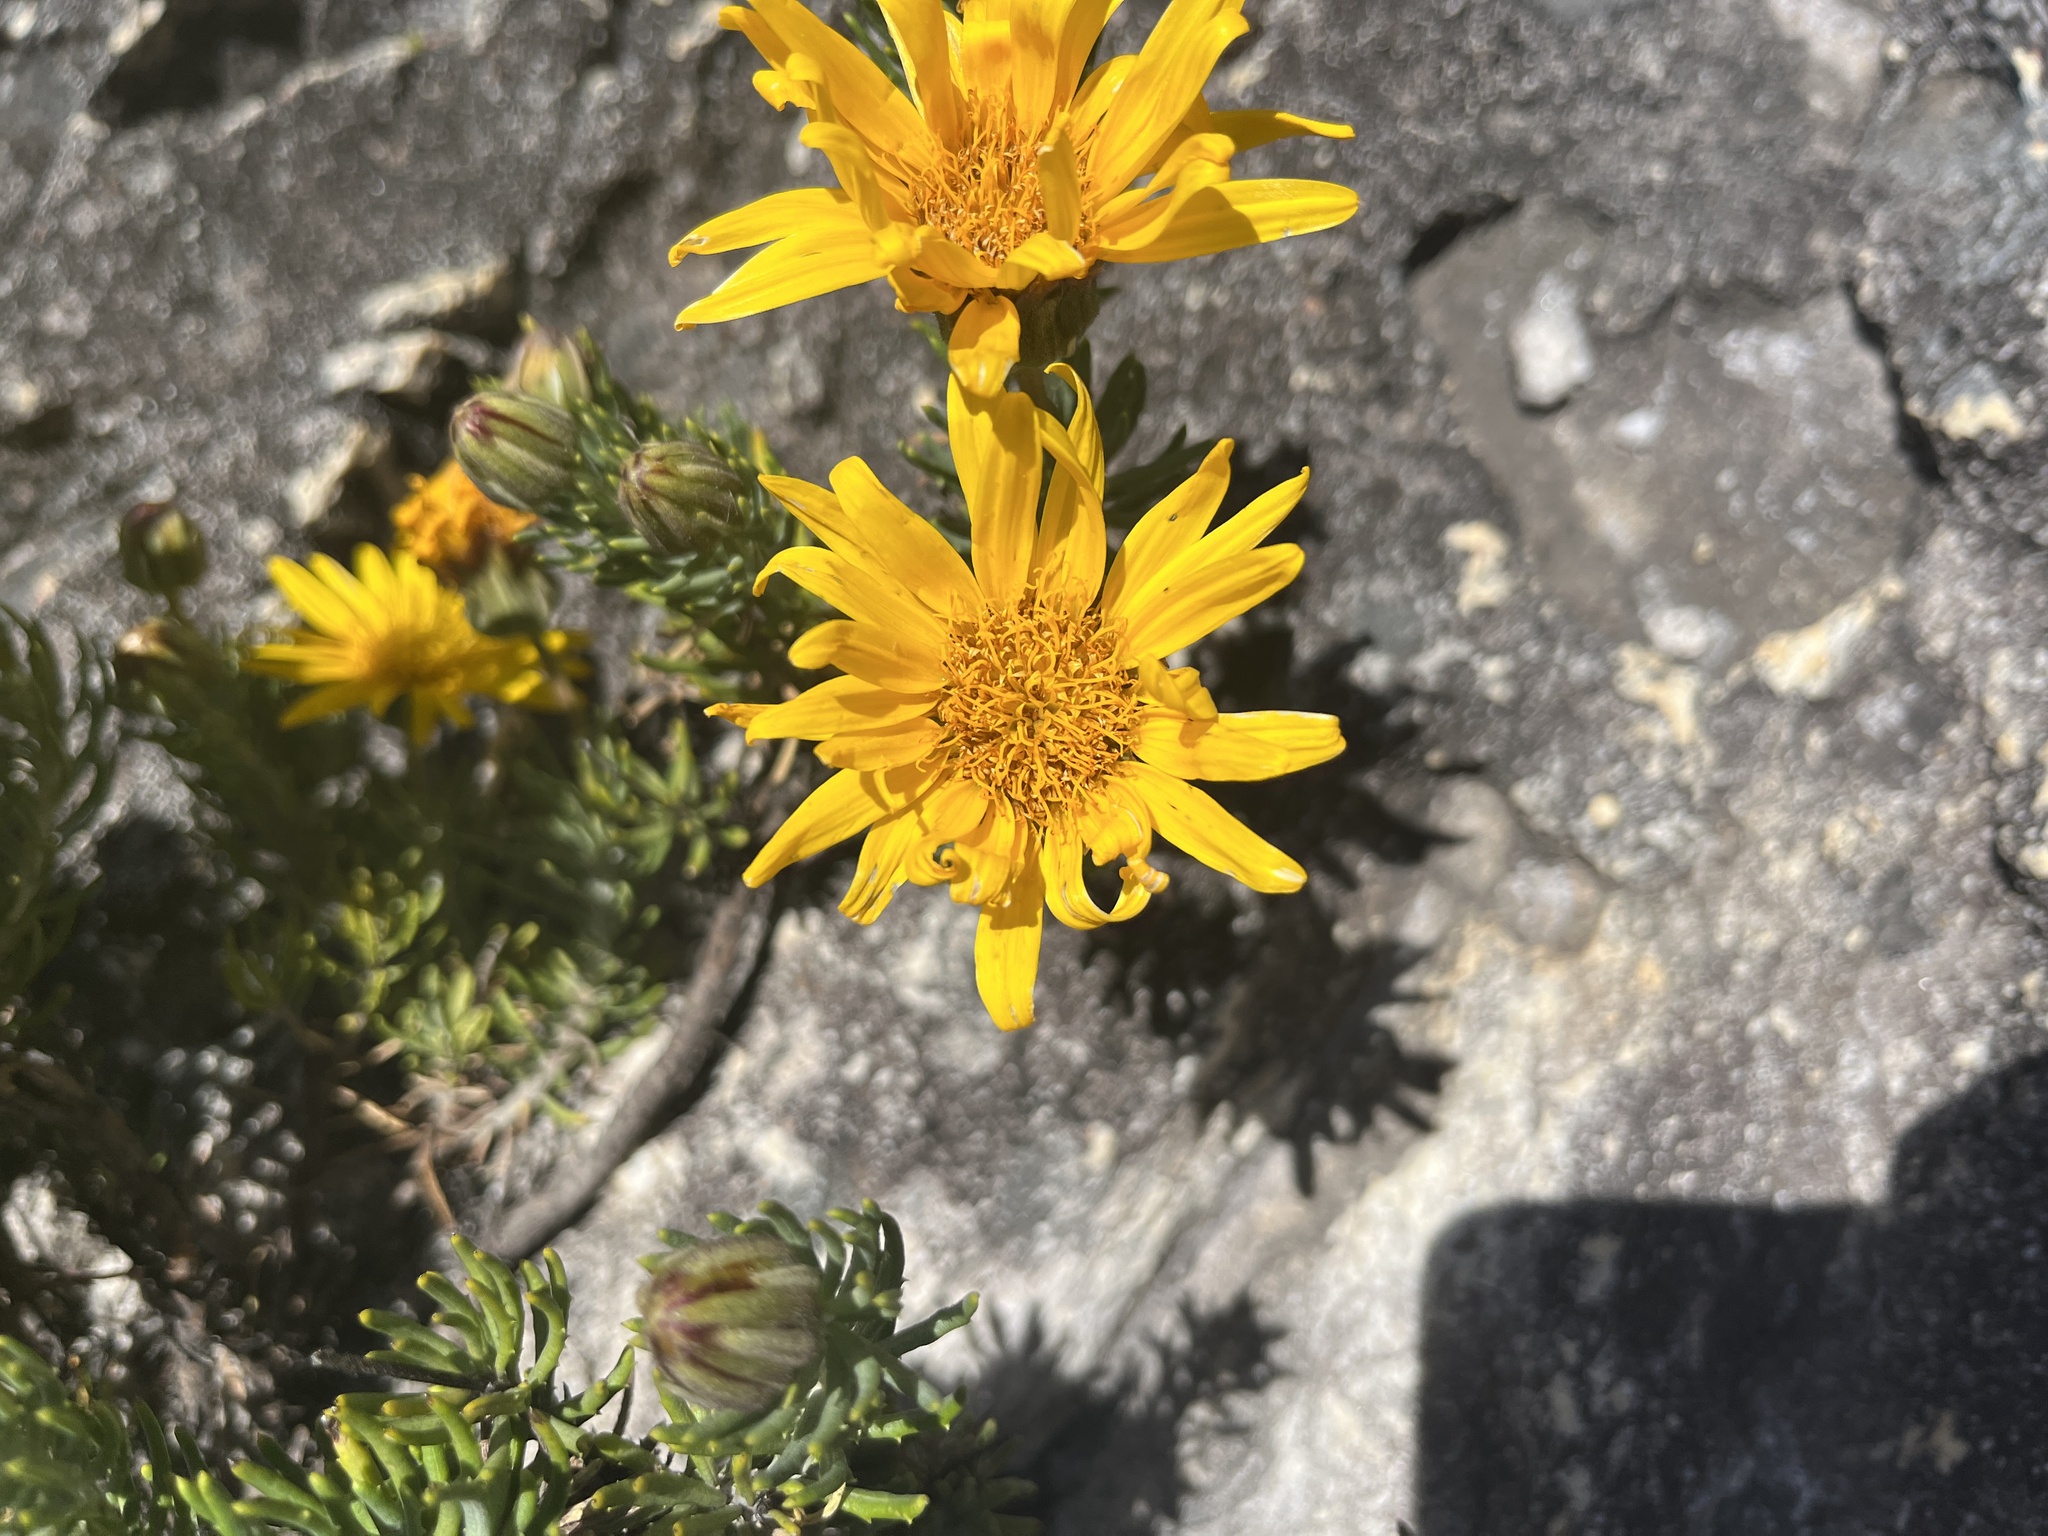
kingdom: Plantae
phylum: Tracheophyta
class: Magnoliopsida
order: Asterales
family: Asteraceae
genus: Heterolepis
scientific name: Heterolepis aliena
